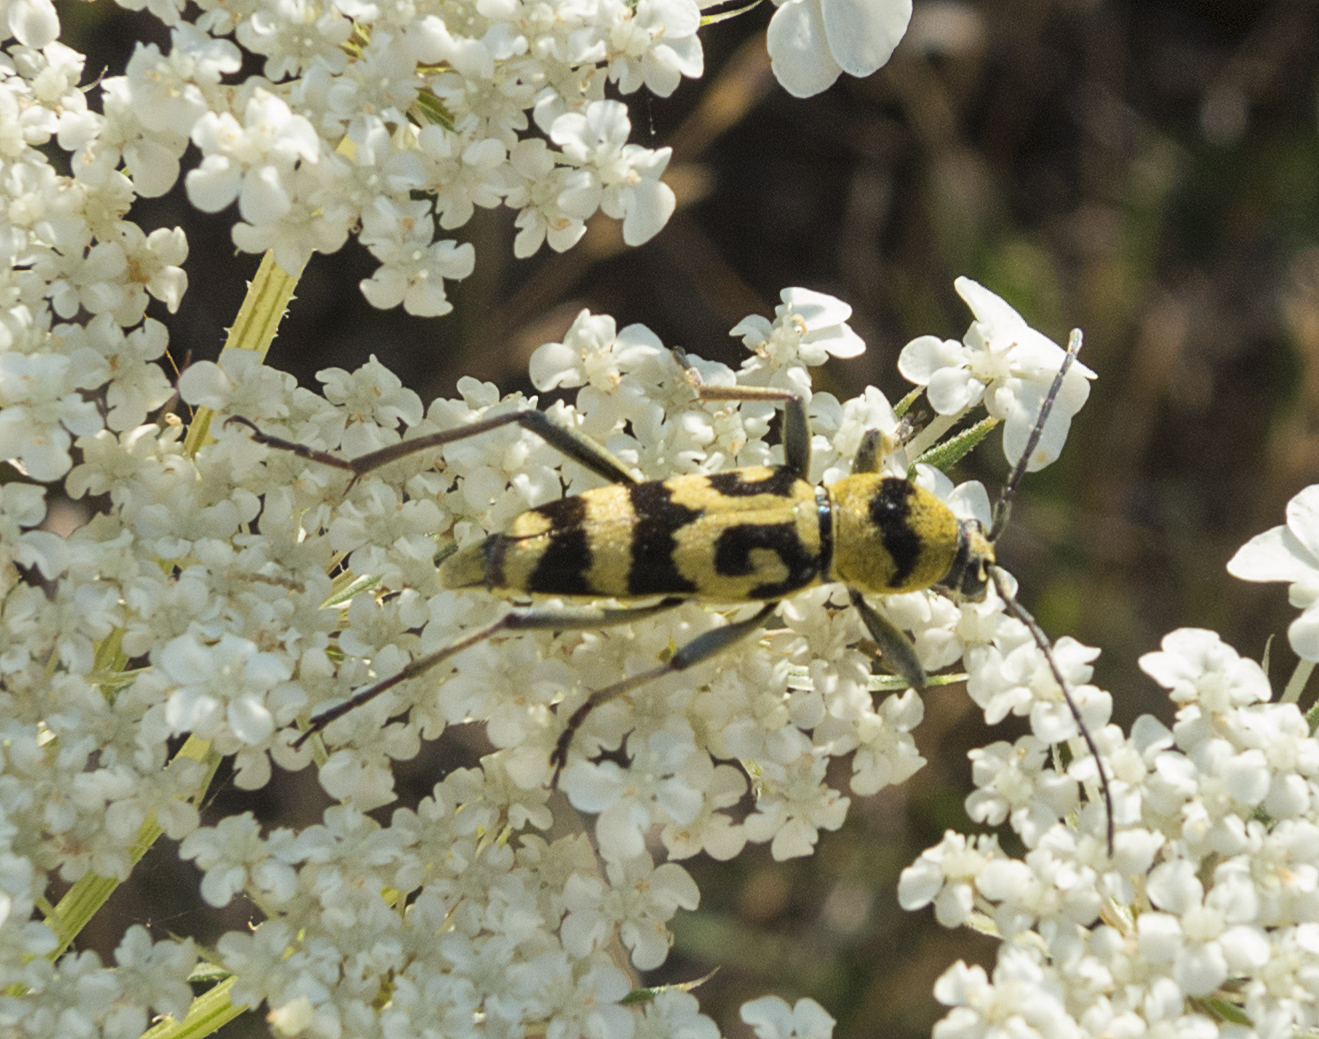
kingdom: Animalia
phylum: Arthropoda
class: Insecta
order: Coleoptera
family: Cerambycidae
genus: Chlorophorus
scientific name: Chlorophorus varius
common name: Grape wood borer
